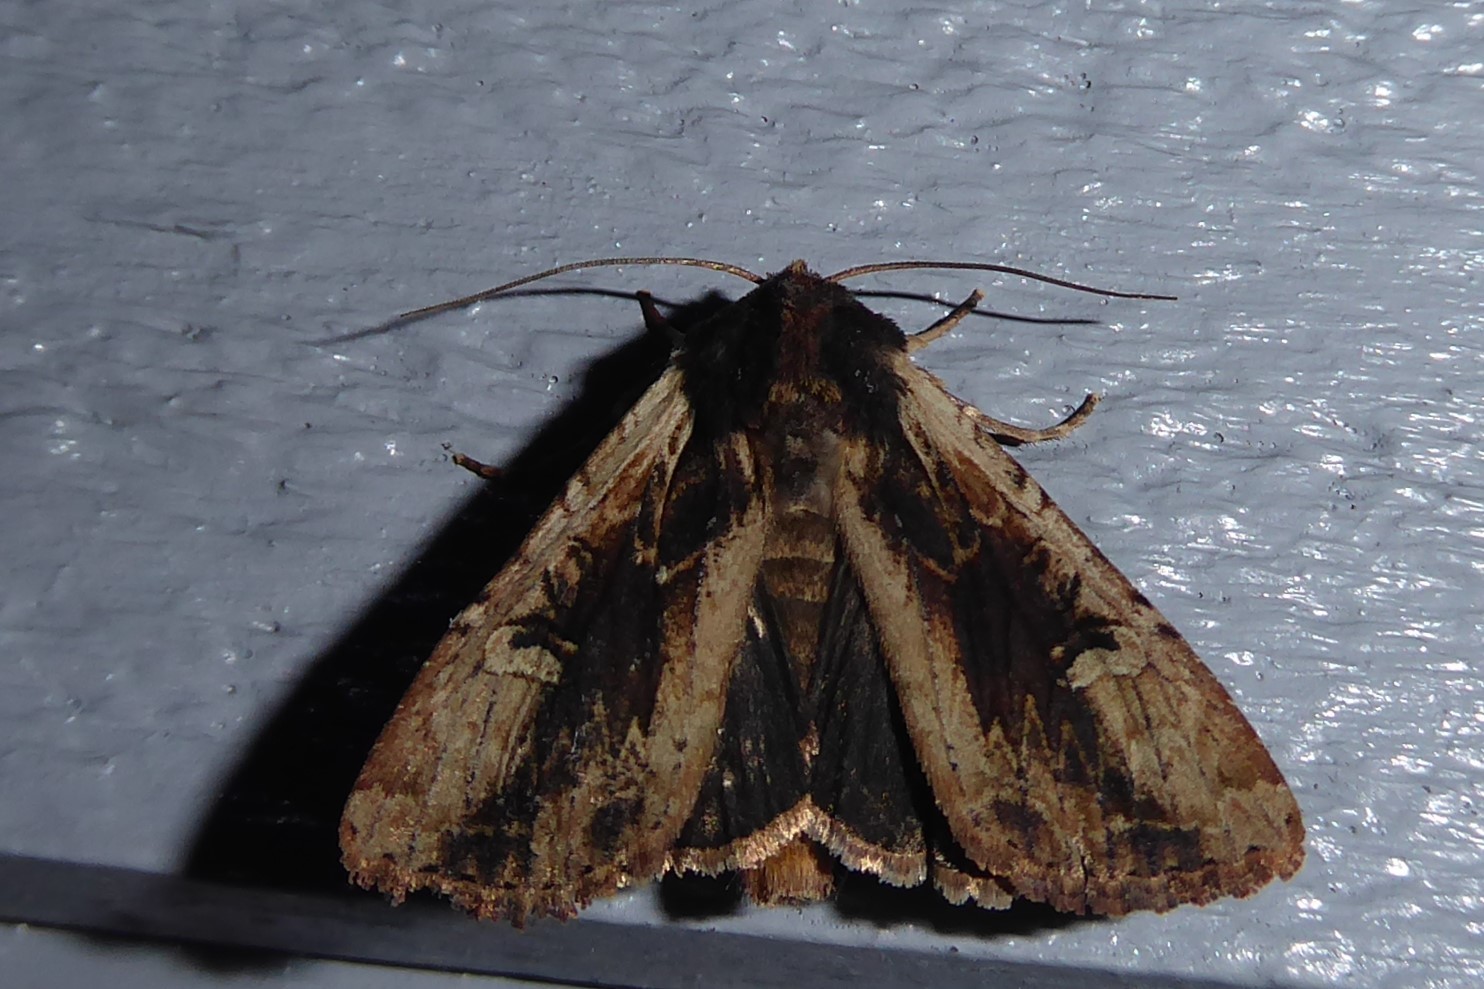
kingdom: Animalia
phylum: Arthropoda
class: Insecta
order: Lepidoptera
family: Noctuidae
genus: Ichneutica
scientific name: Ichneutica omoplaca
